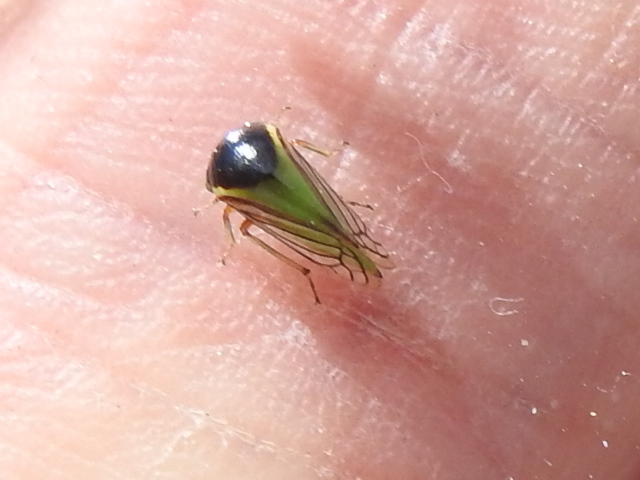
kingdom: Animalia
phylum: Arthropoda
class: Insecta
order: Hemiptera
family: Membracidae
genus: Acutalis
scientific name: Acutalis tartarea
